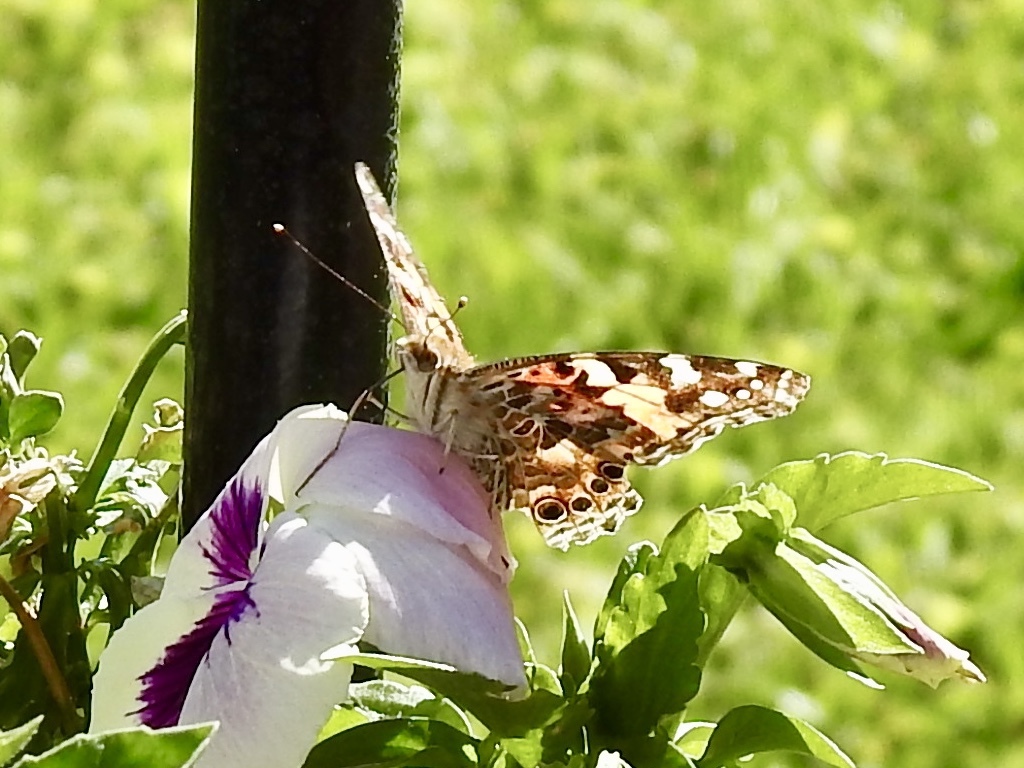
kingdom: Animalia
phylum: Arthropoda
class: Insecta
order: Lepidoptera
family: Nymphalidae
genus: Vanessa
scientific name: Vanessa cardui
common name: Painted lady
